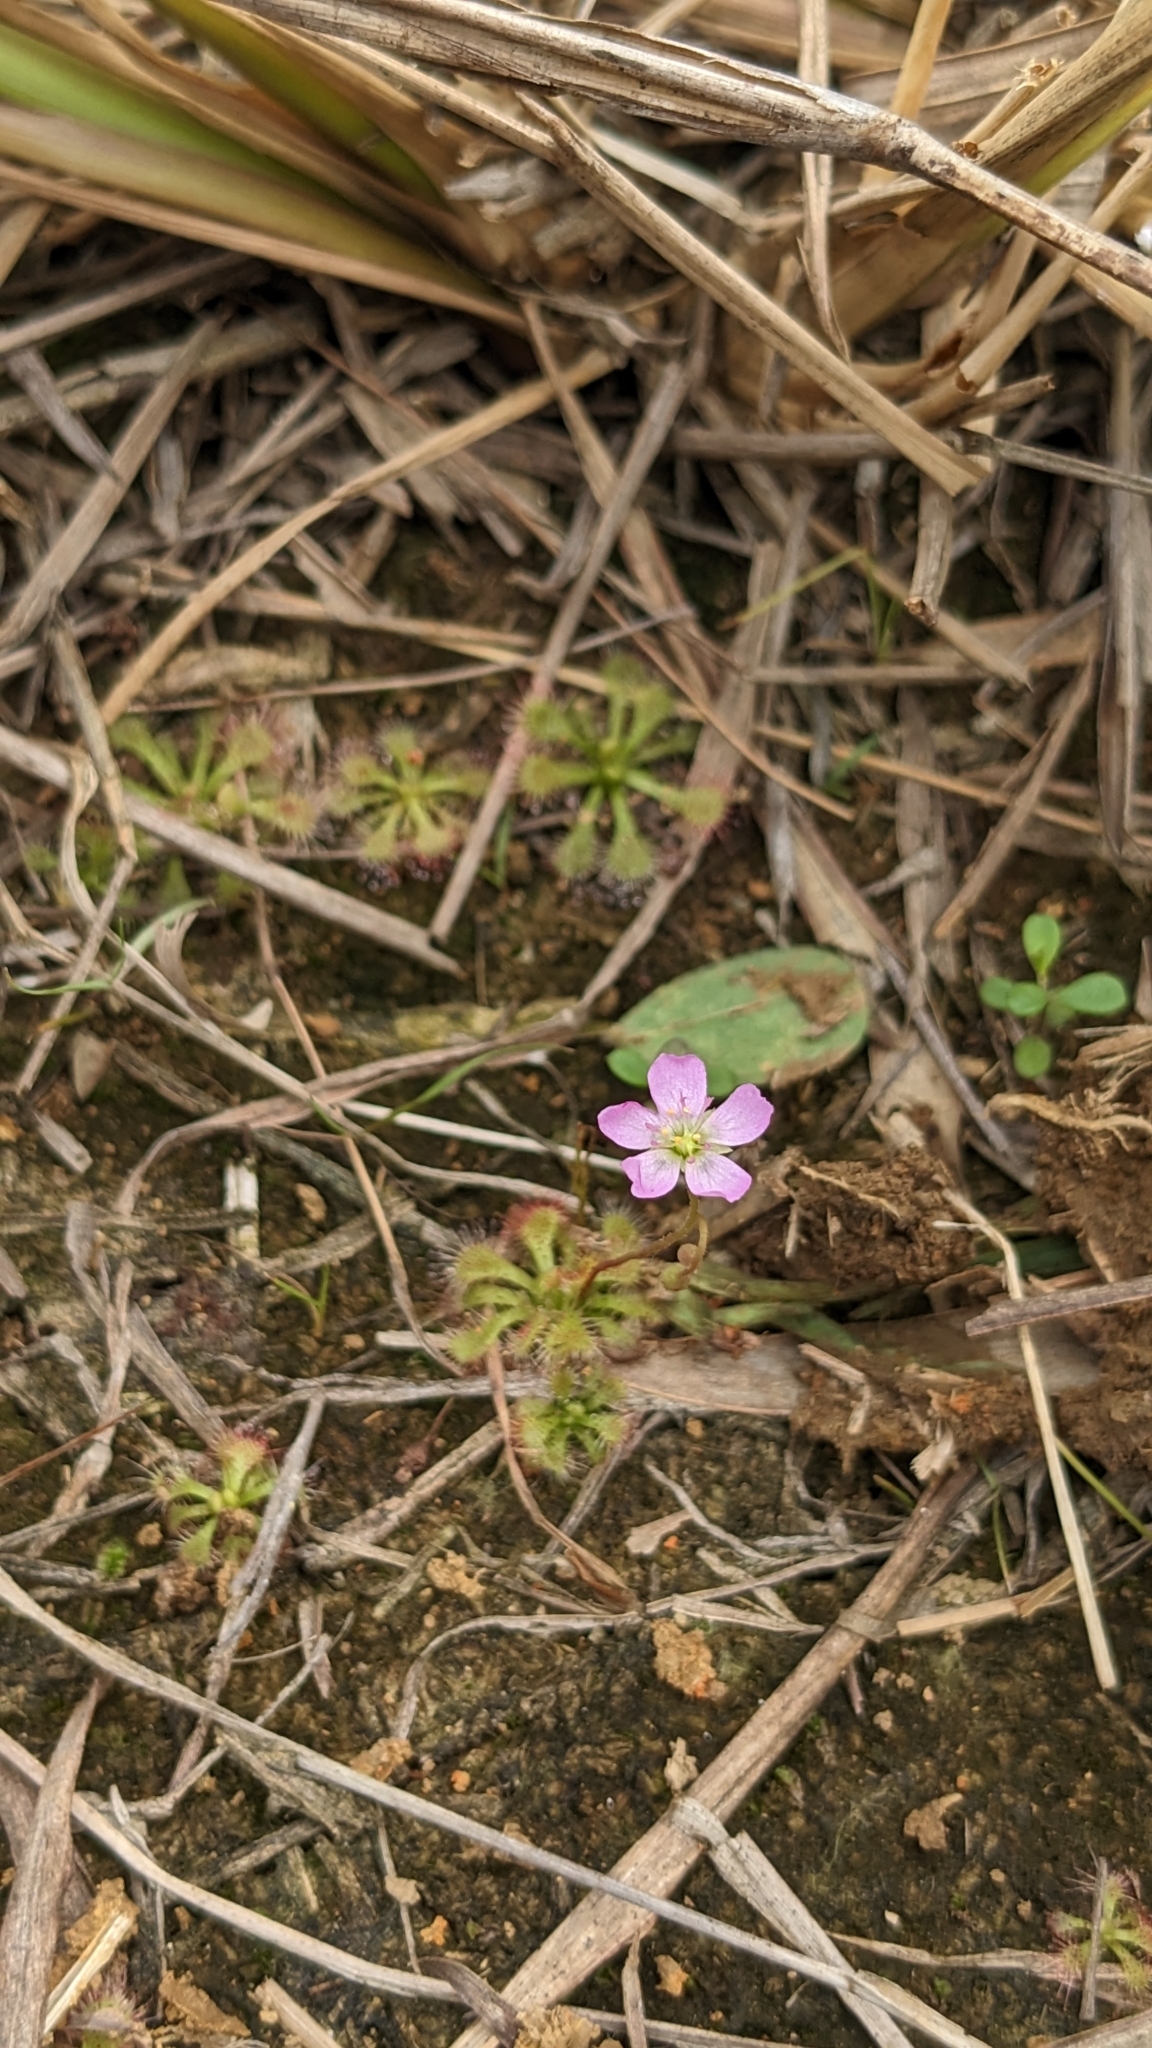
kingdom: Plantae
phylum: Tracheophyta
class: Magnoliopsida
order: Caryophyllales
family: Droseraceae
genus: Drosera
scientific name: Drosera spatulata
